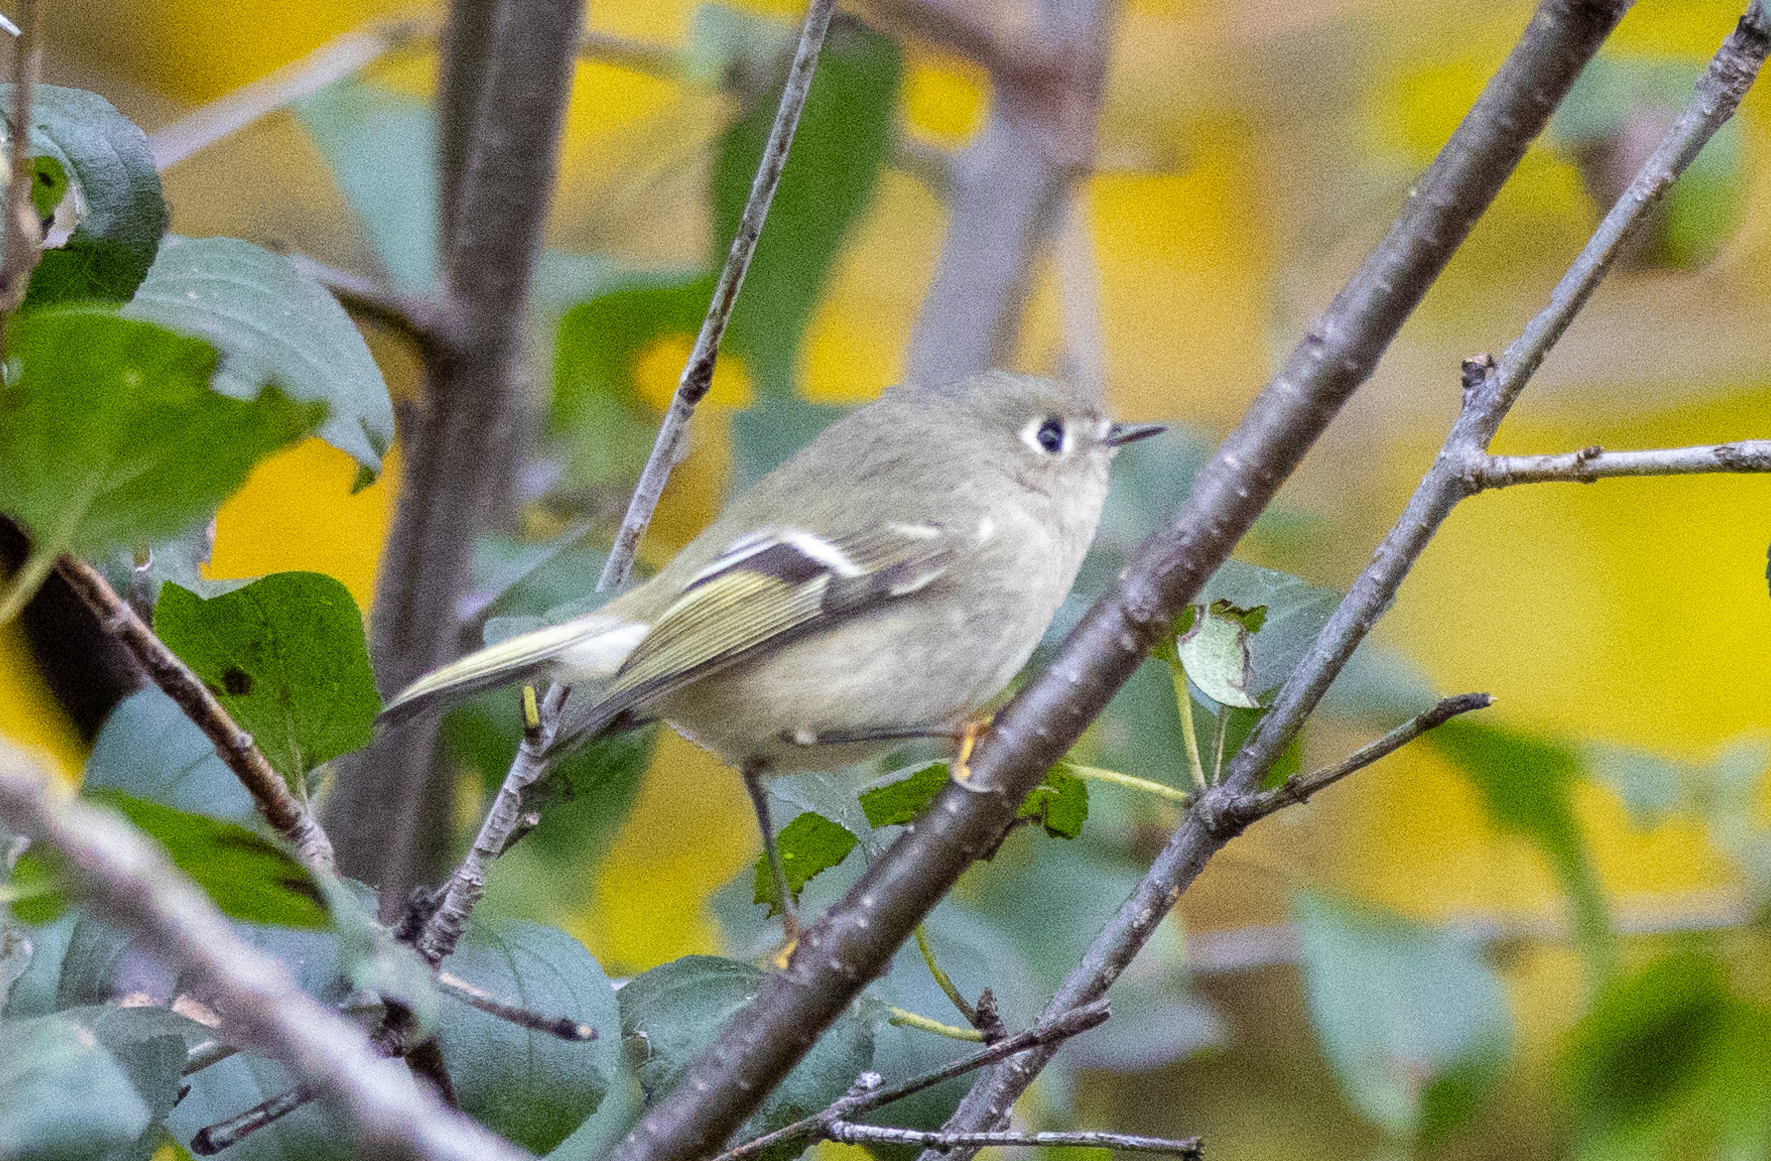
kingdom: Animalia
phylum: Chordata
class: Aves
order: Passeriformes
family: Regulidae
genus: Regulus
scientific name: Regulus calendula
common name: Ruby-crowned kinglet
